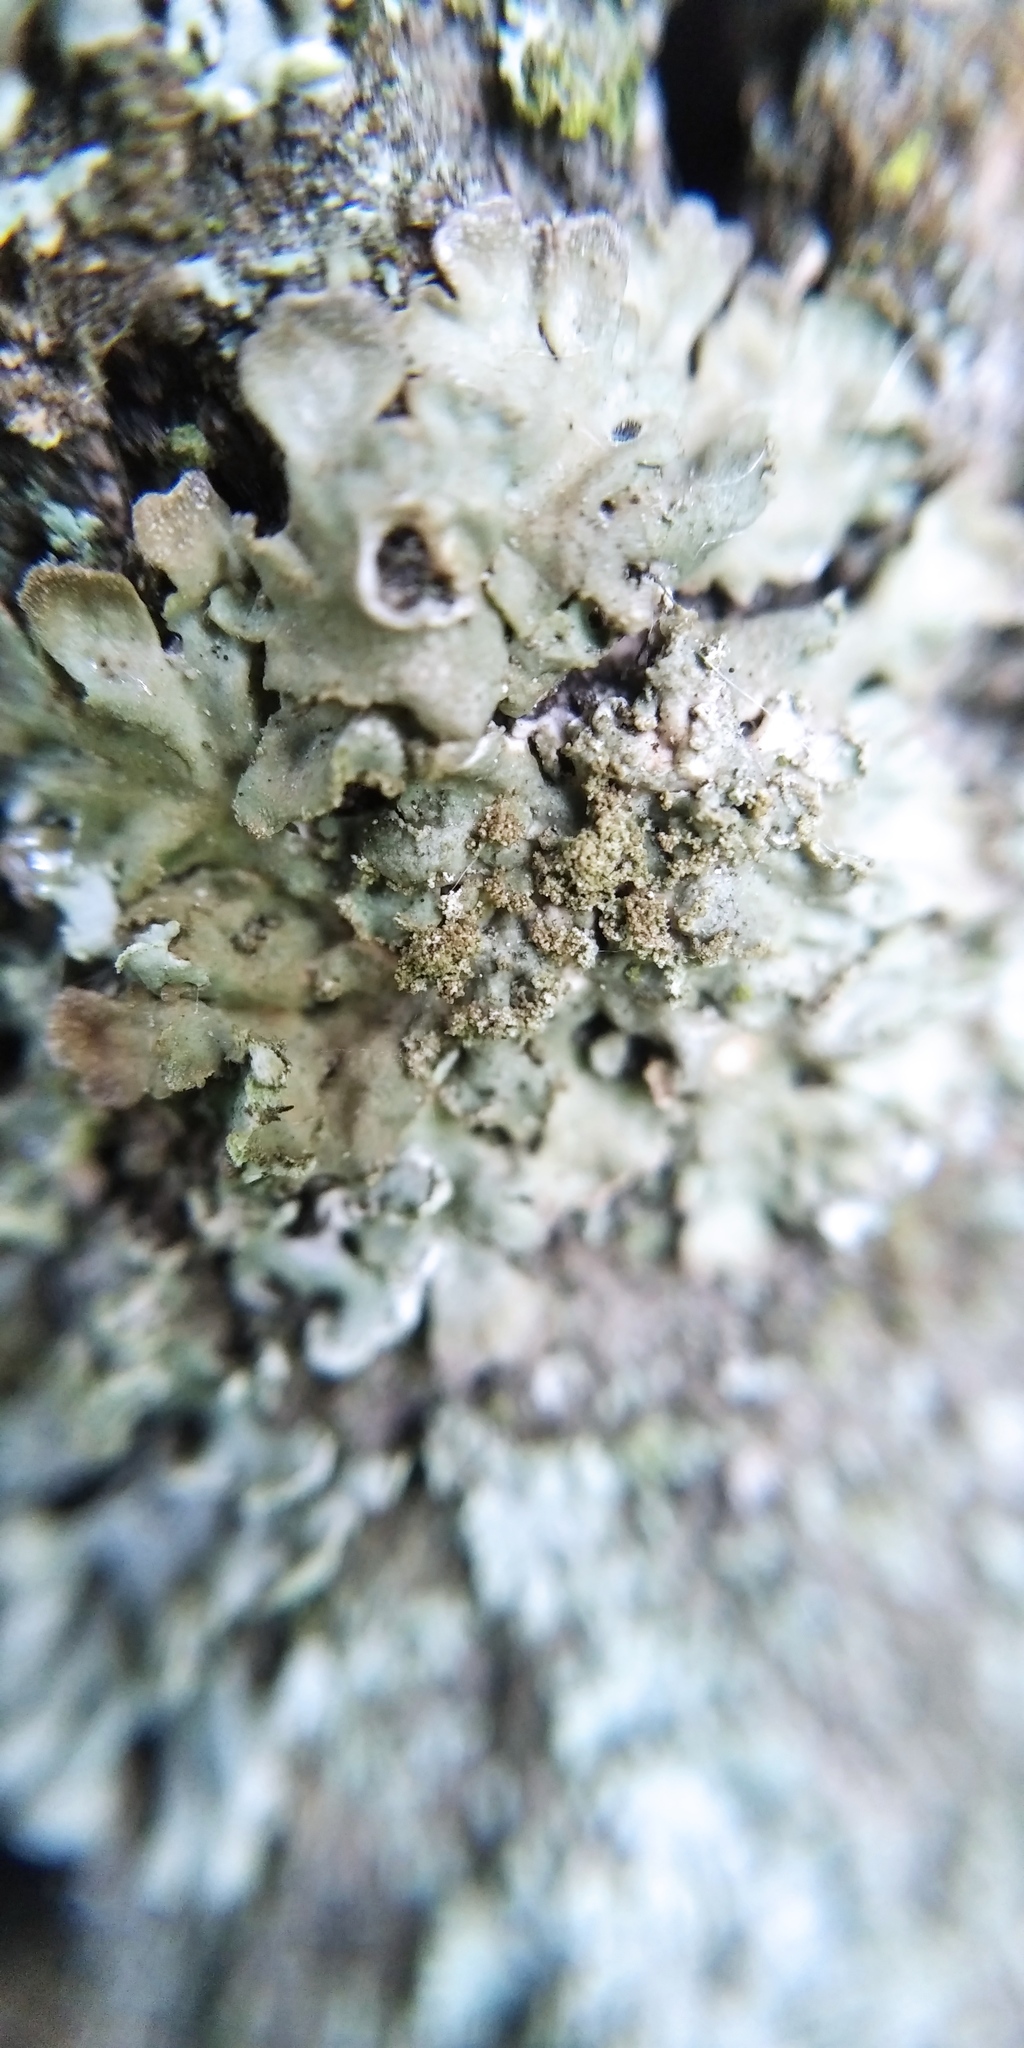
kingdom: Fungi
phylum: Ascomycota
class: Lecanoromycetes
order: Caliciales
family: Physciaceae
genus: Poeltonia
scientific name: Poeltonia grisea
